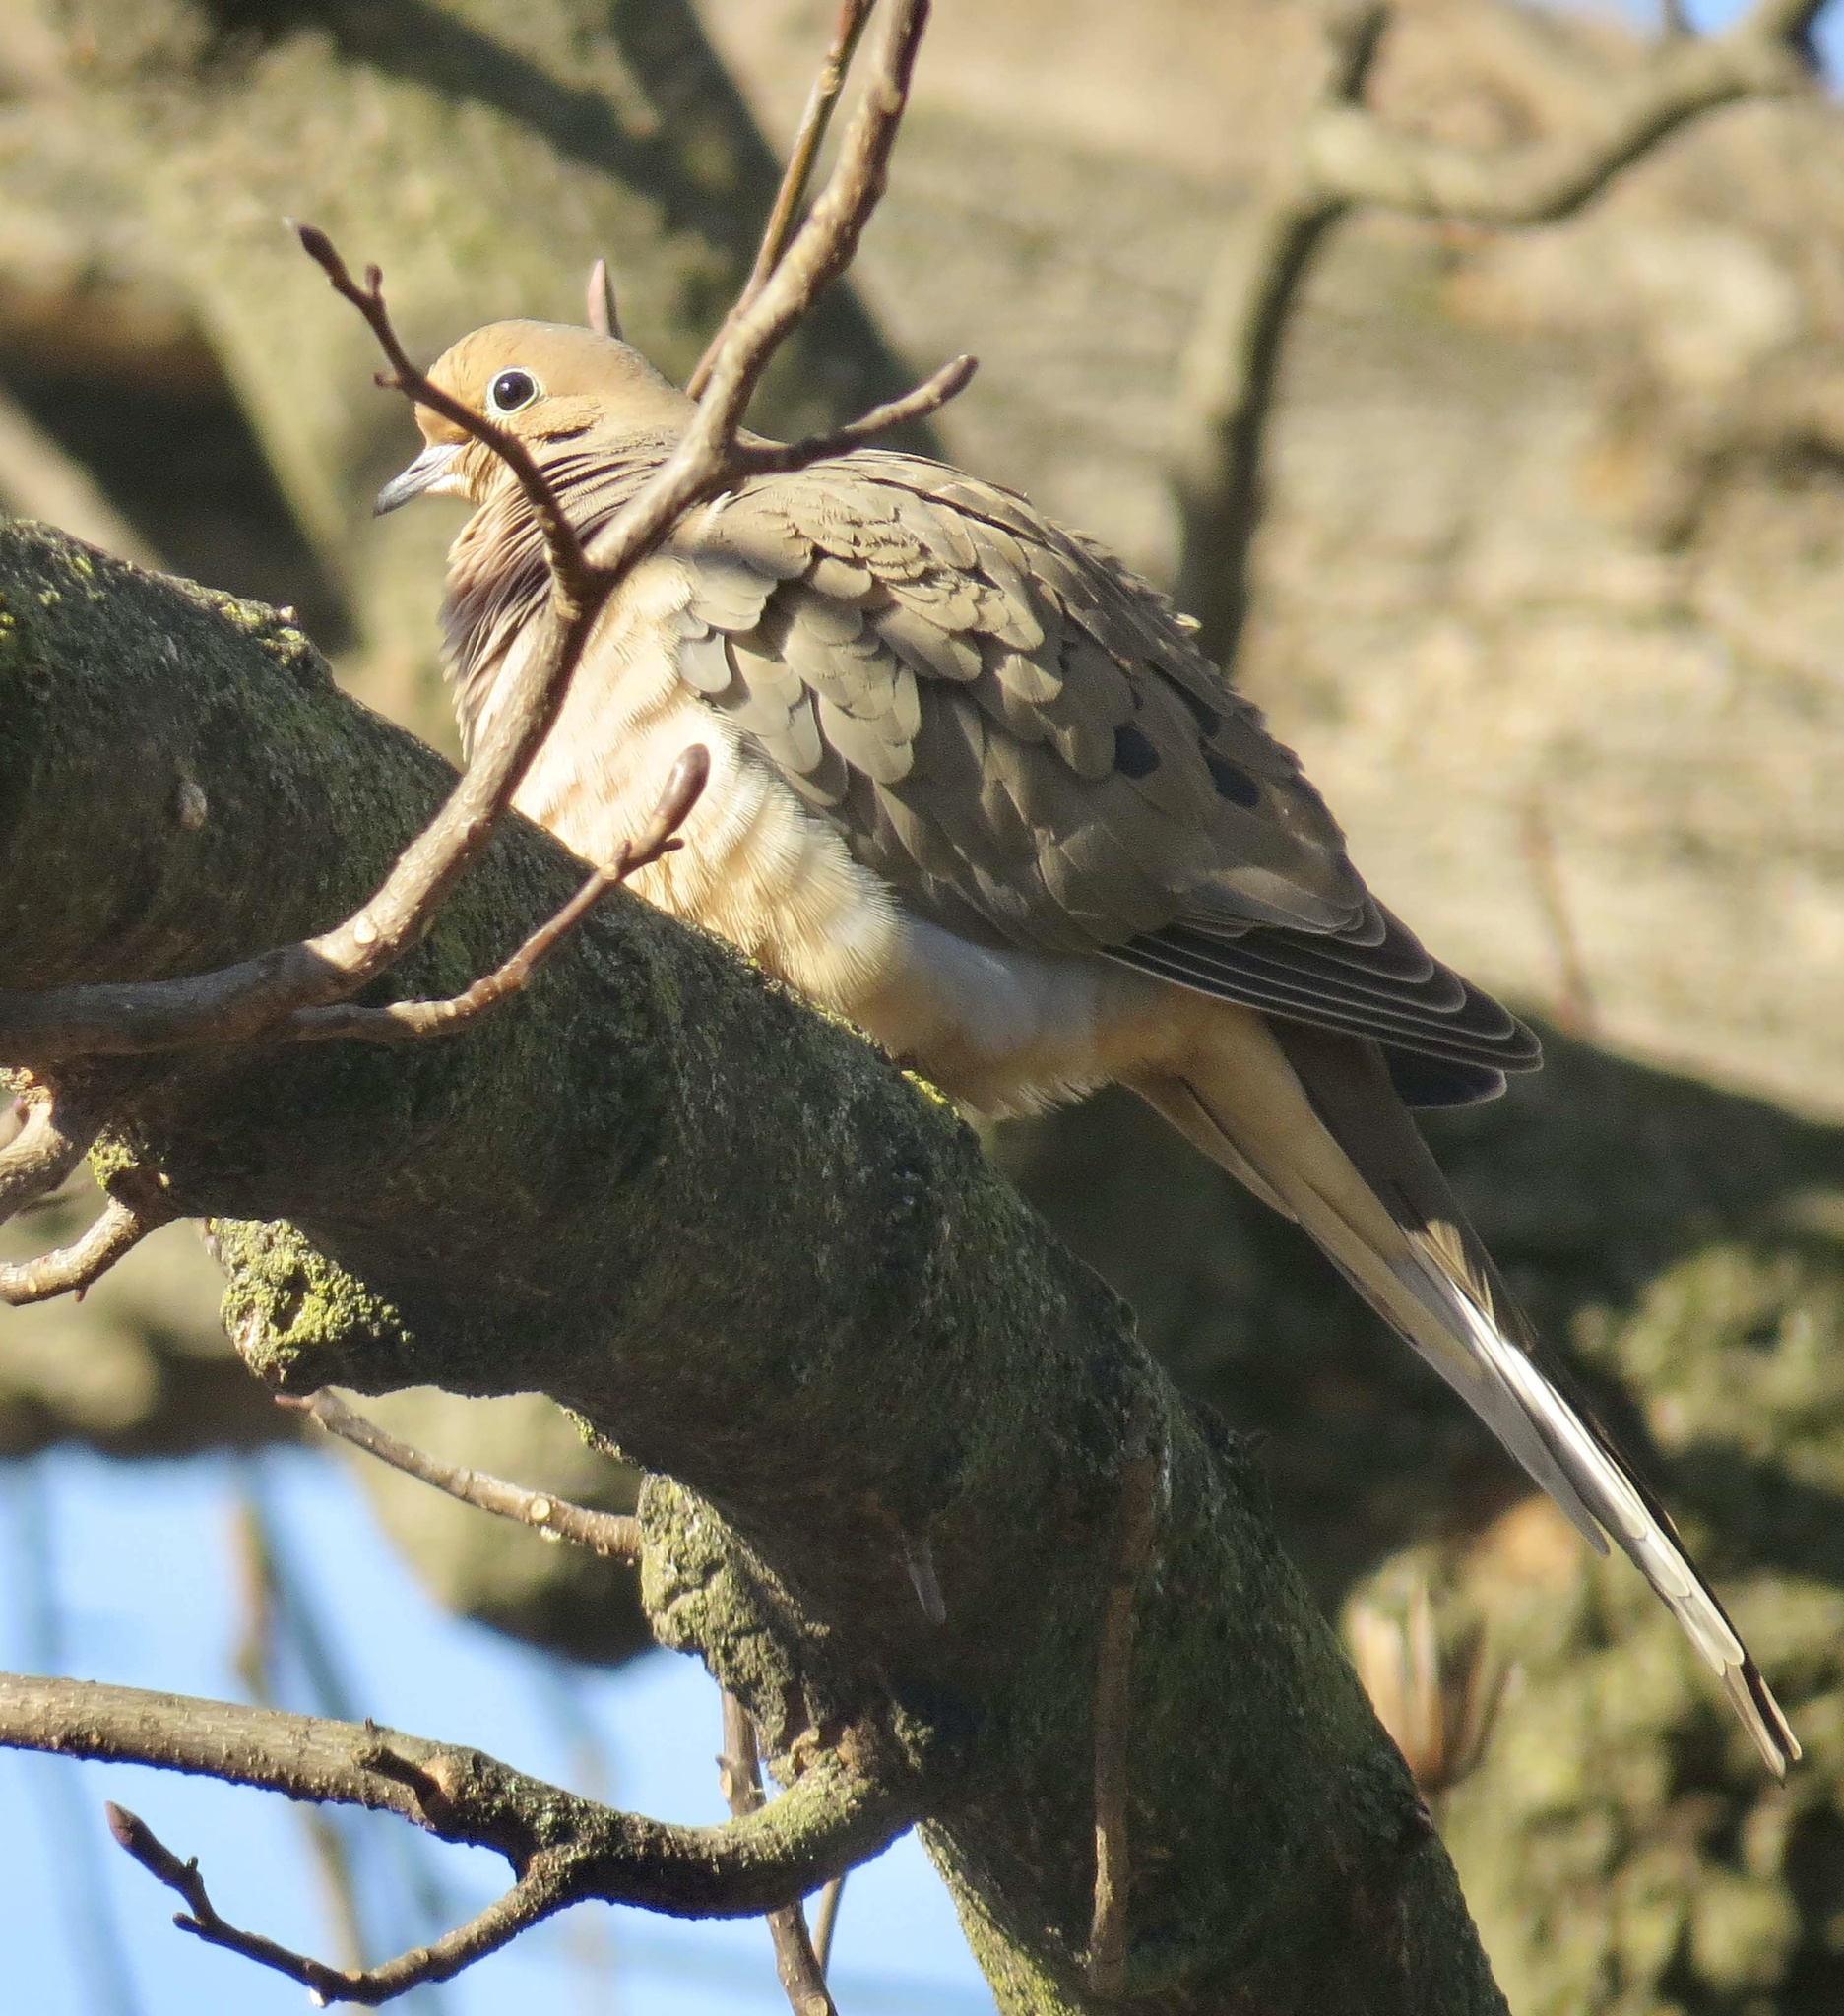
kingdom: Animalia
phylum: Chordata
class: Aves
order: Columbiformes
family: Columbidae
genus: Zenaida
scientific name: Zenaida macroura
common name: Mourning dove
